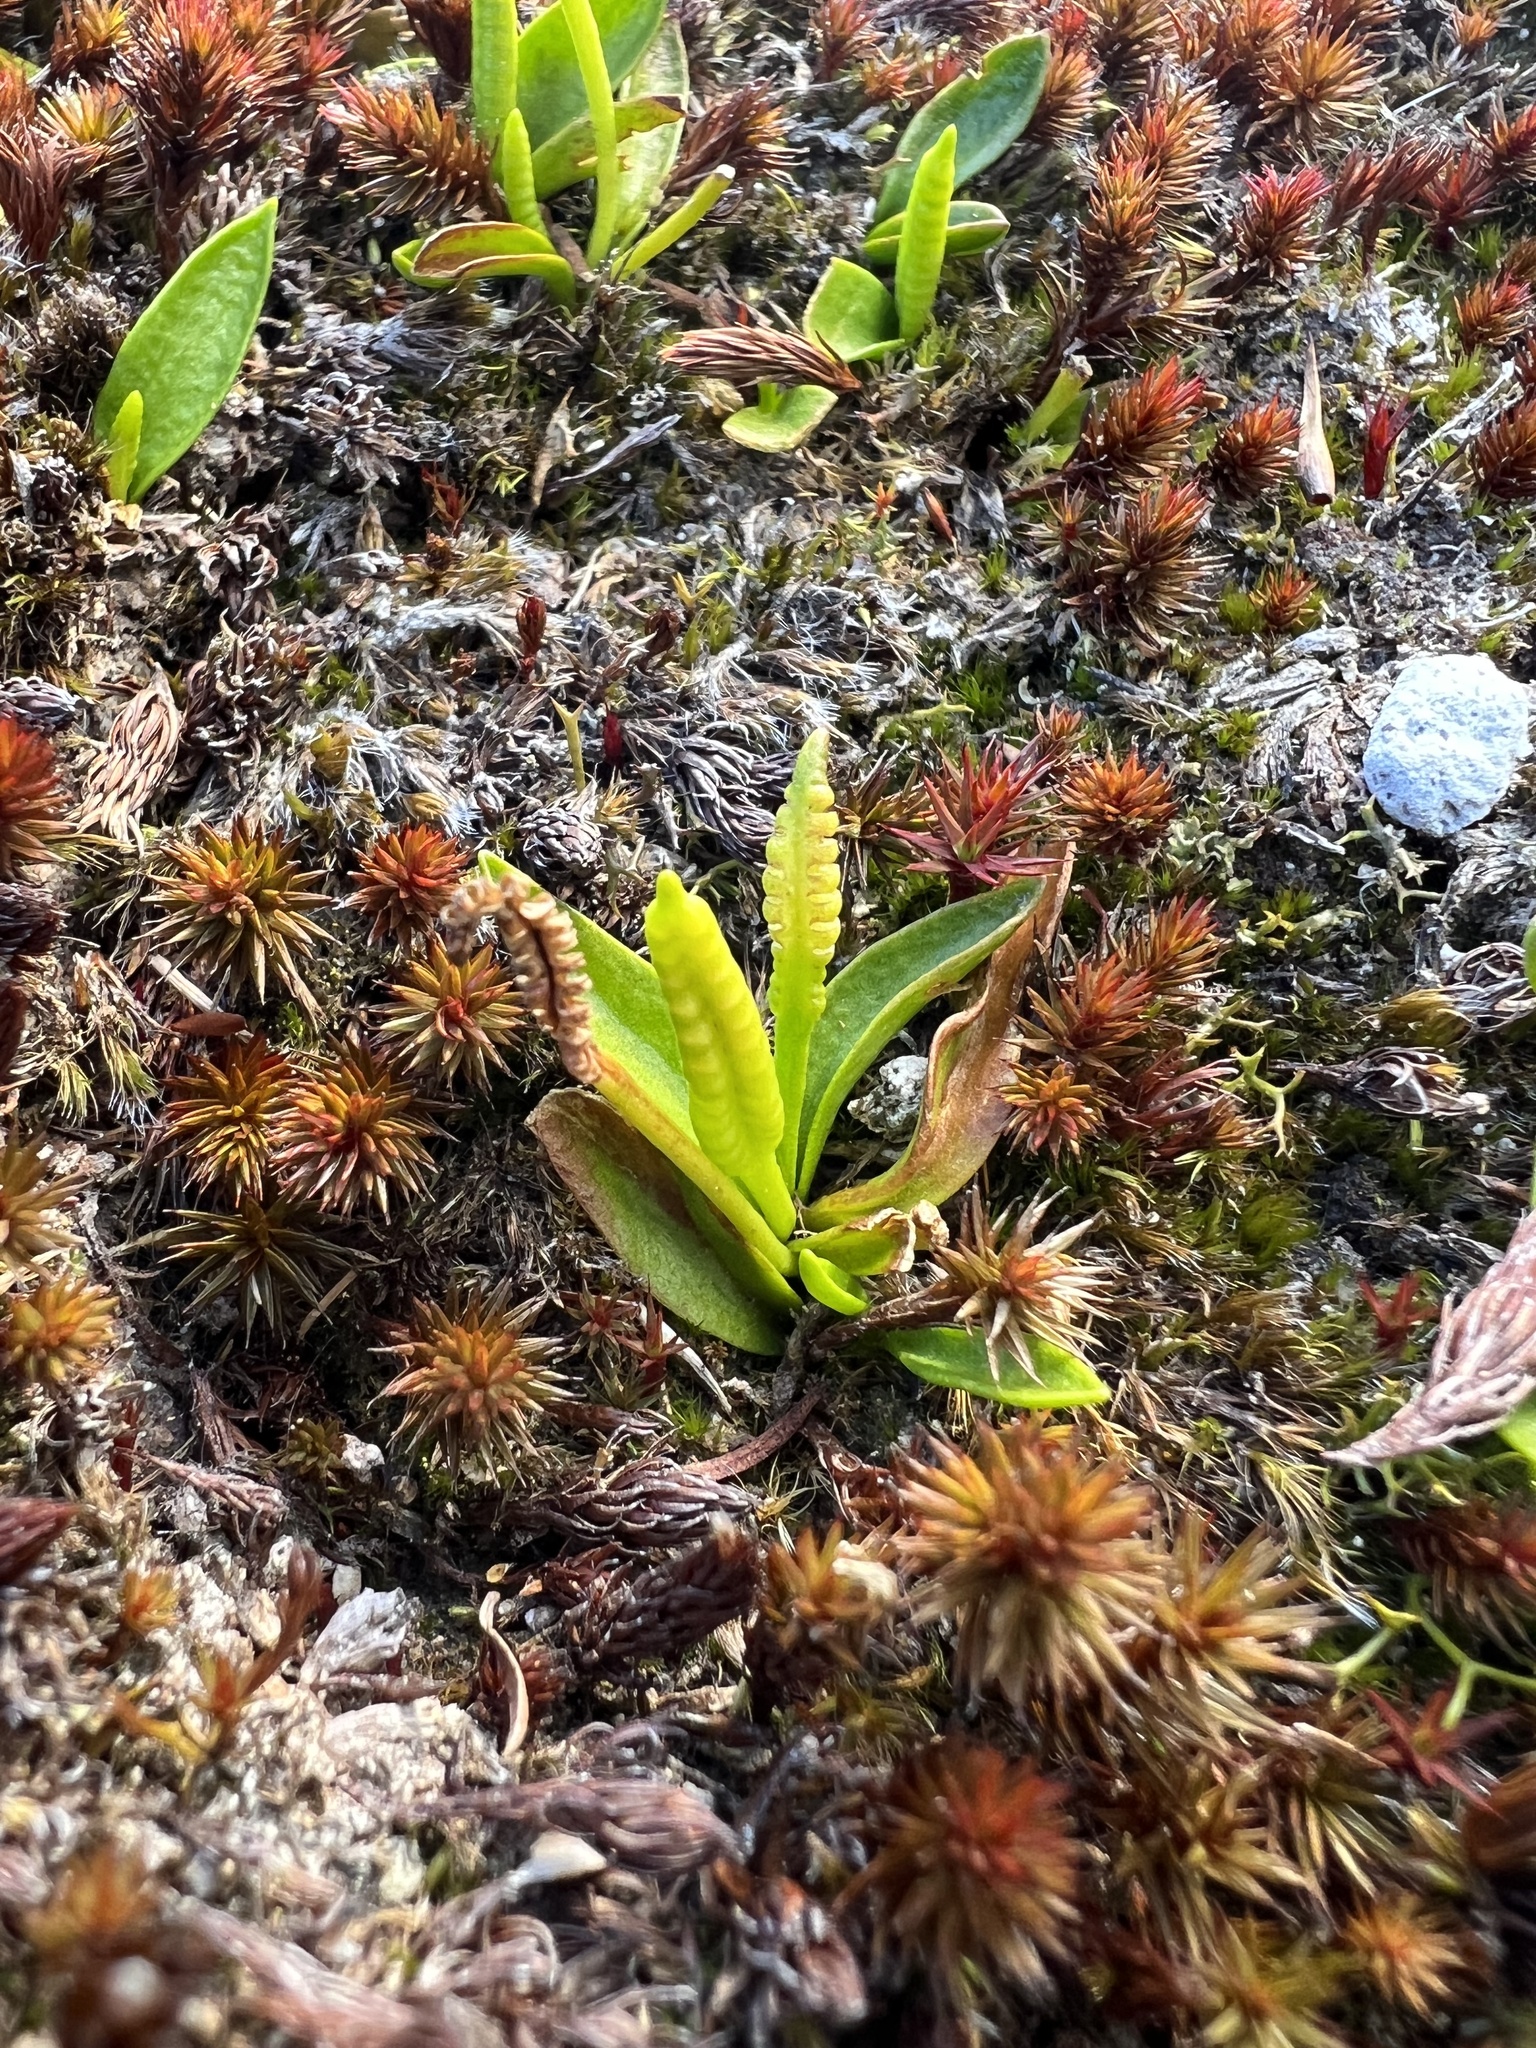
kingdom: Plantae
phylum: Tracheophyta
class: Polypodiopsida
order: Ophioglossales
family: Ophioglossaceae
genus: Ophioglossum
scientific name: Ophioglossum coriaceum
